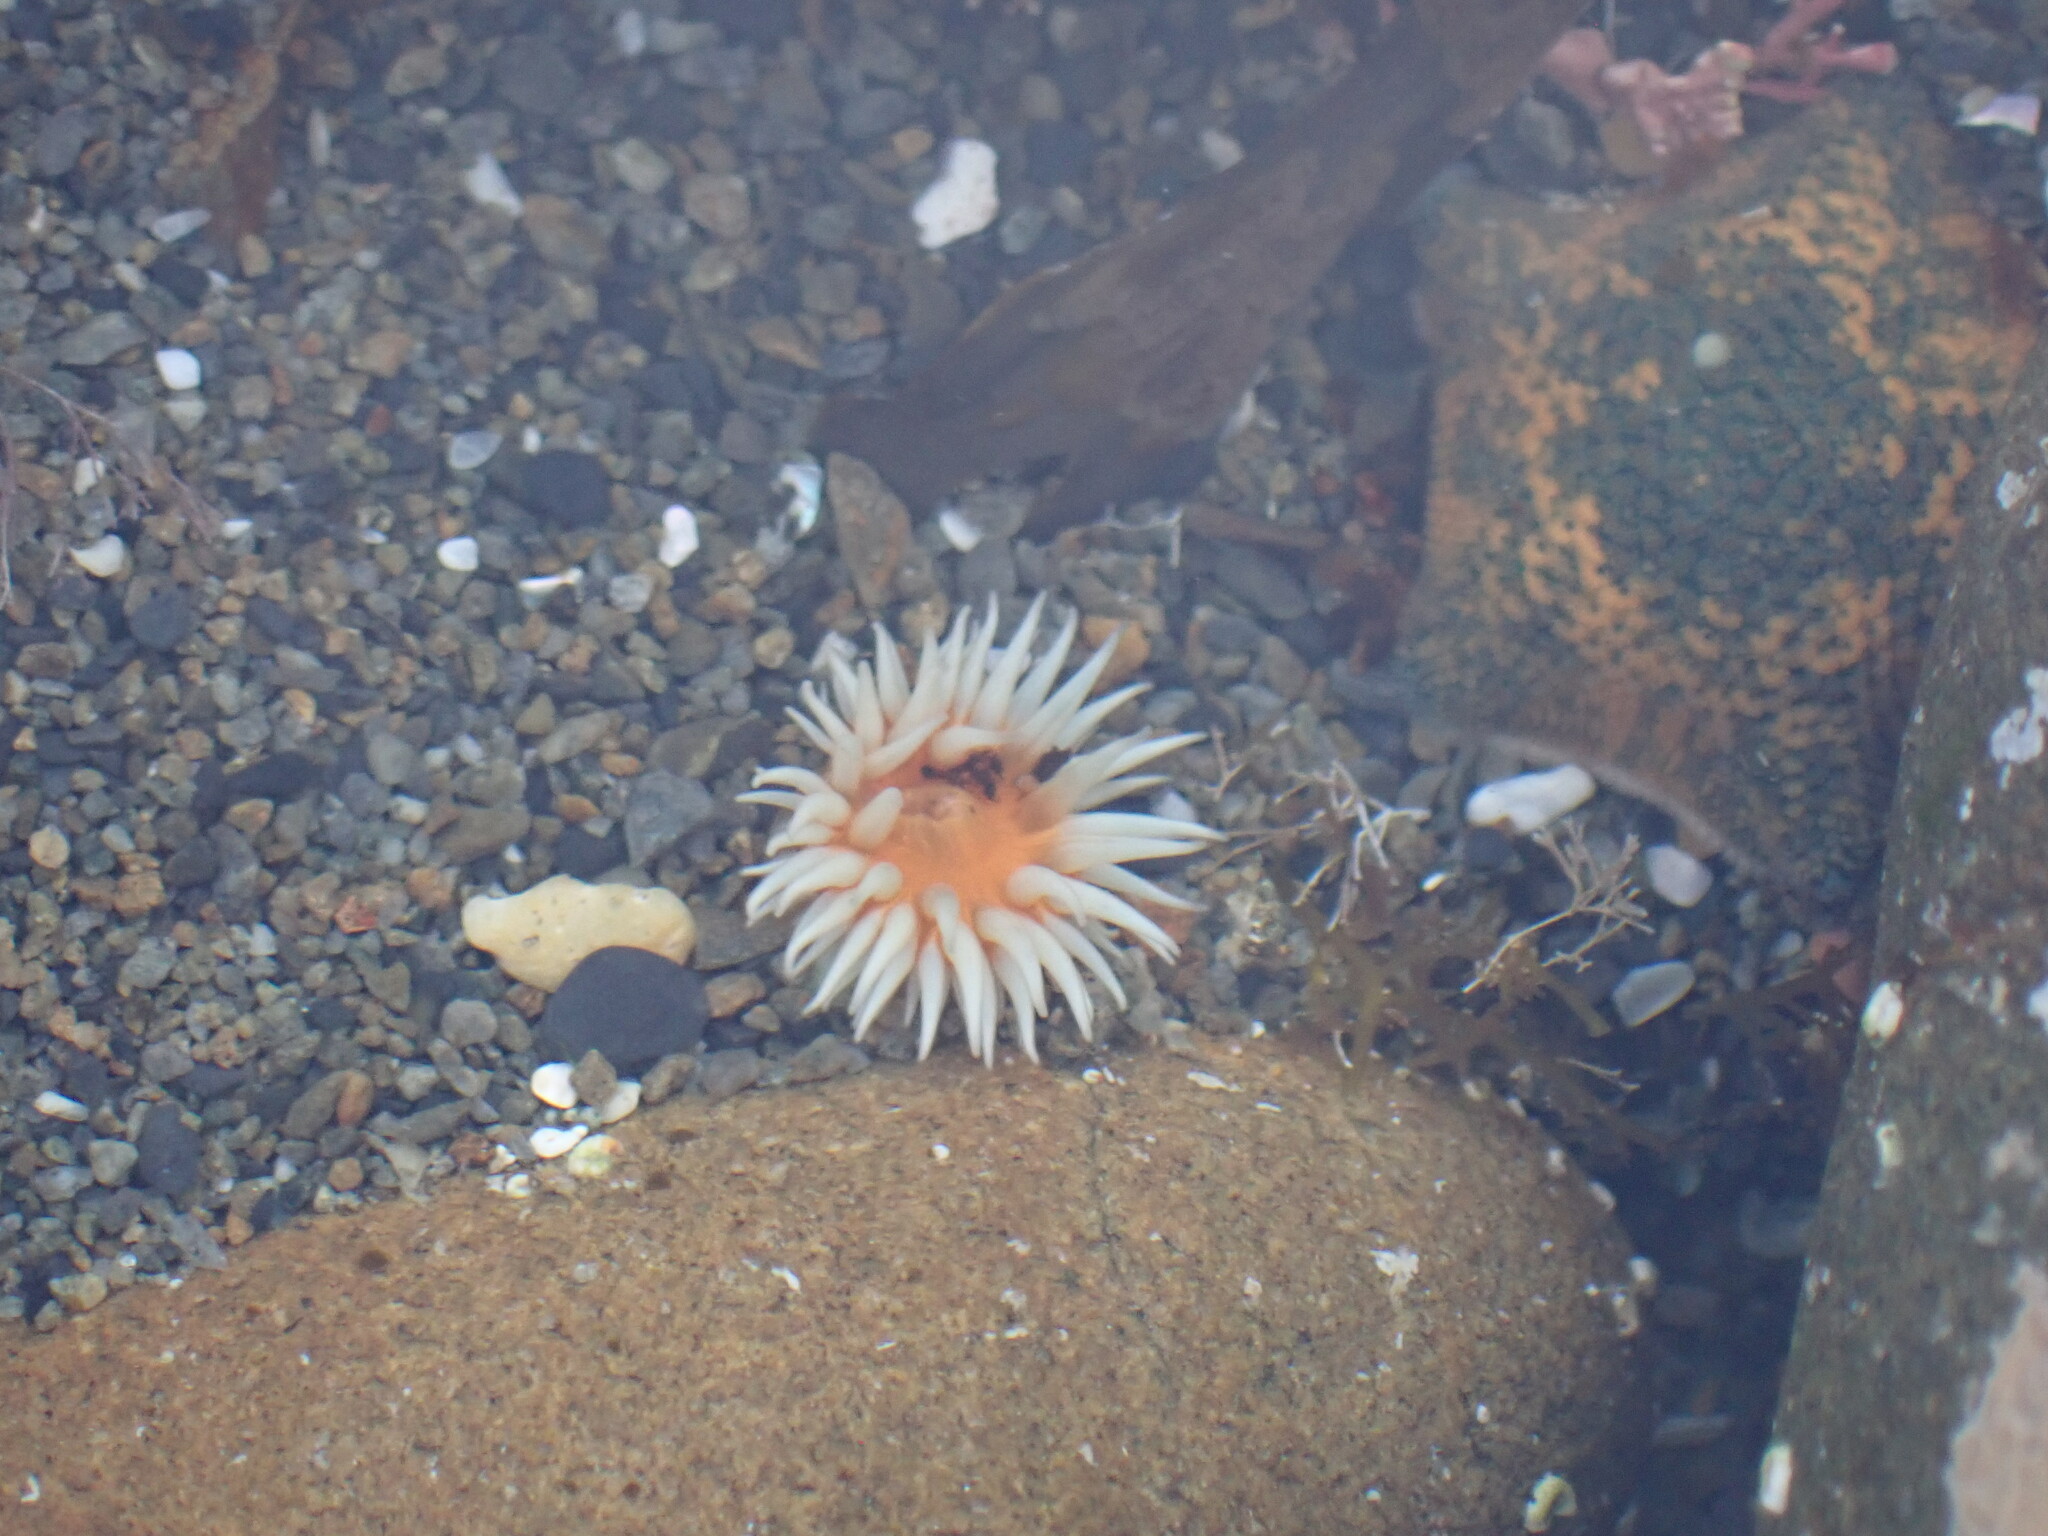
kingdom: Animalia
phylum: Cnidaria
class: Anthozoa
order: Actiniaria
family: Sagartiidae
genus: Anthothoe
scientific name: Anthothoe albocincta
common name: Orange striped anemone
